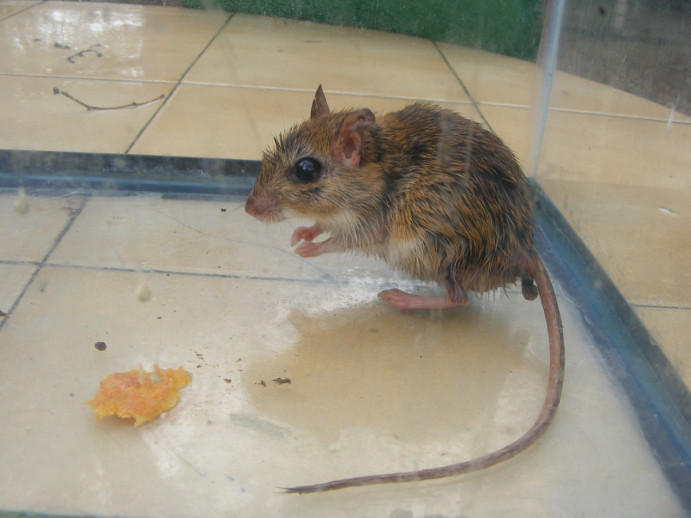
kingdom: Animalia
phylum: Chordata
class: Mammalia
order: Rodentia
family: Muridae
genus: Gerbilliscus
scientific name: Gerbilliscus leucogaster
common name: Bushveld gerbil
